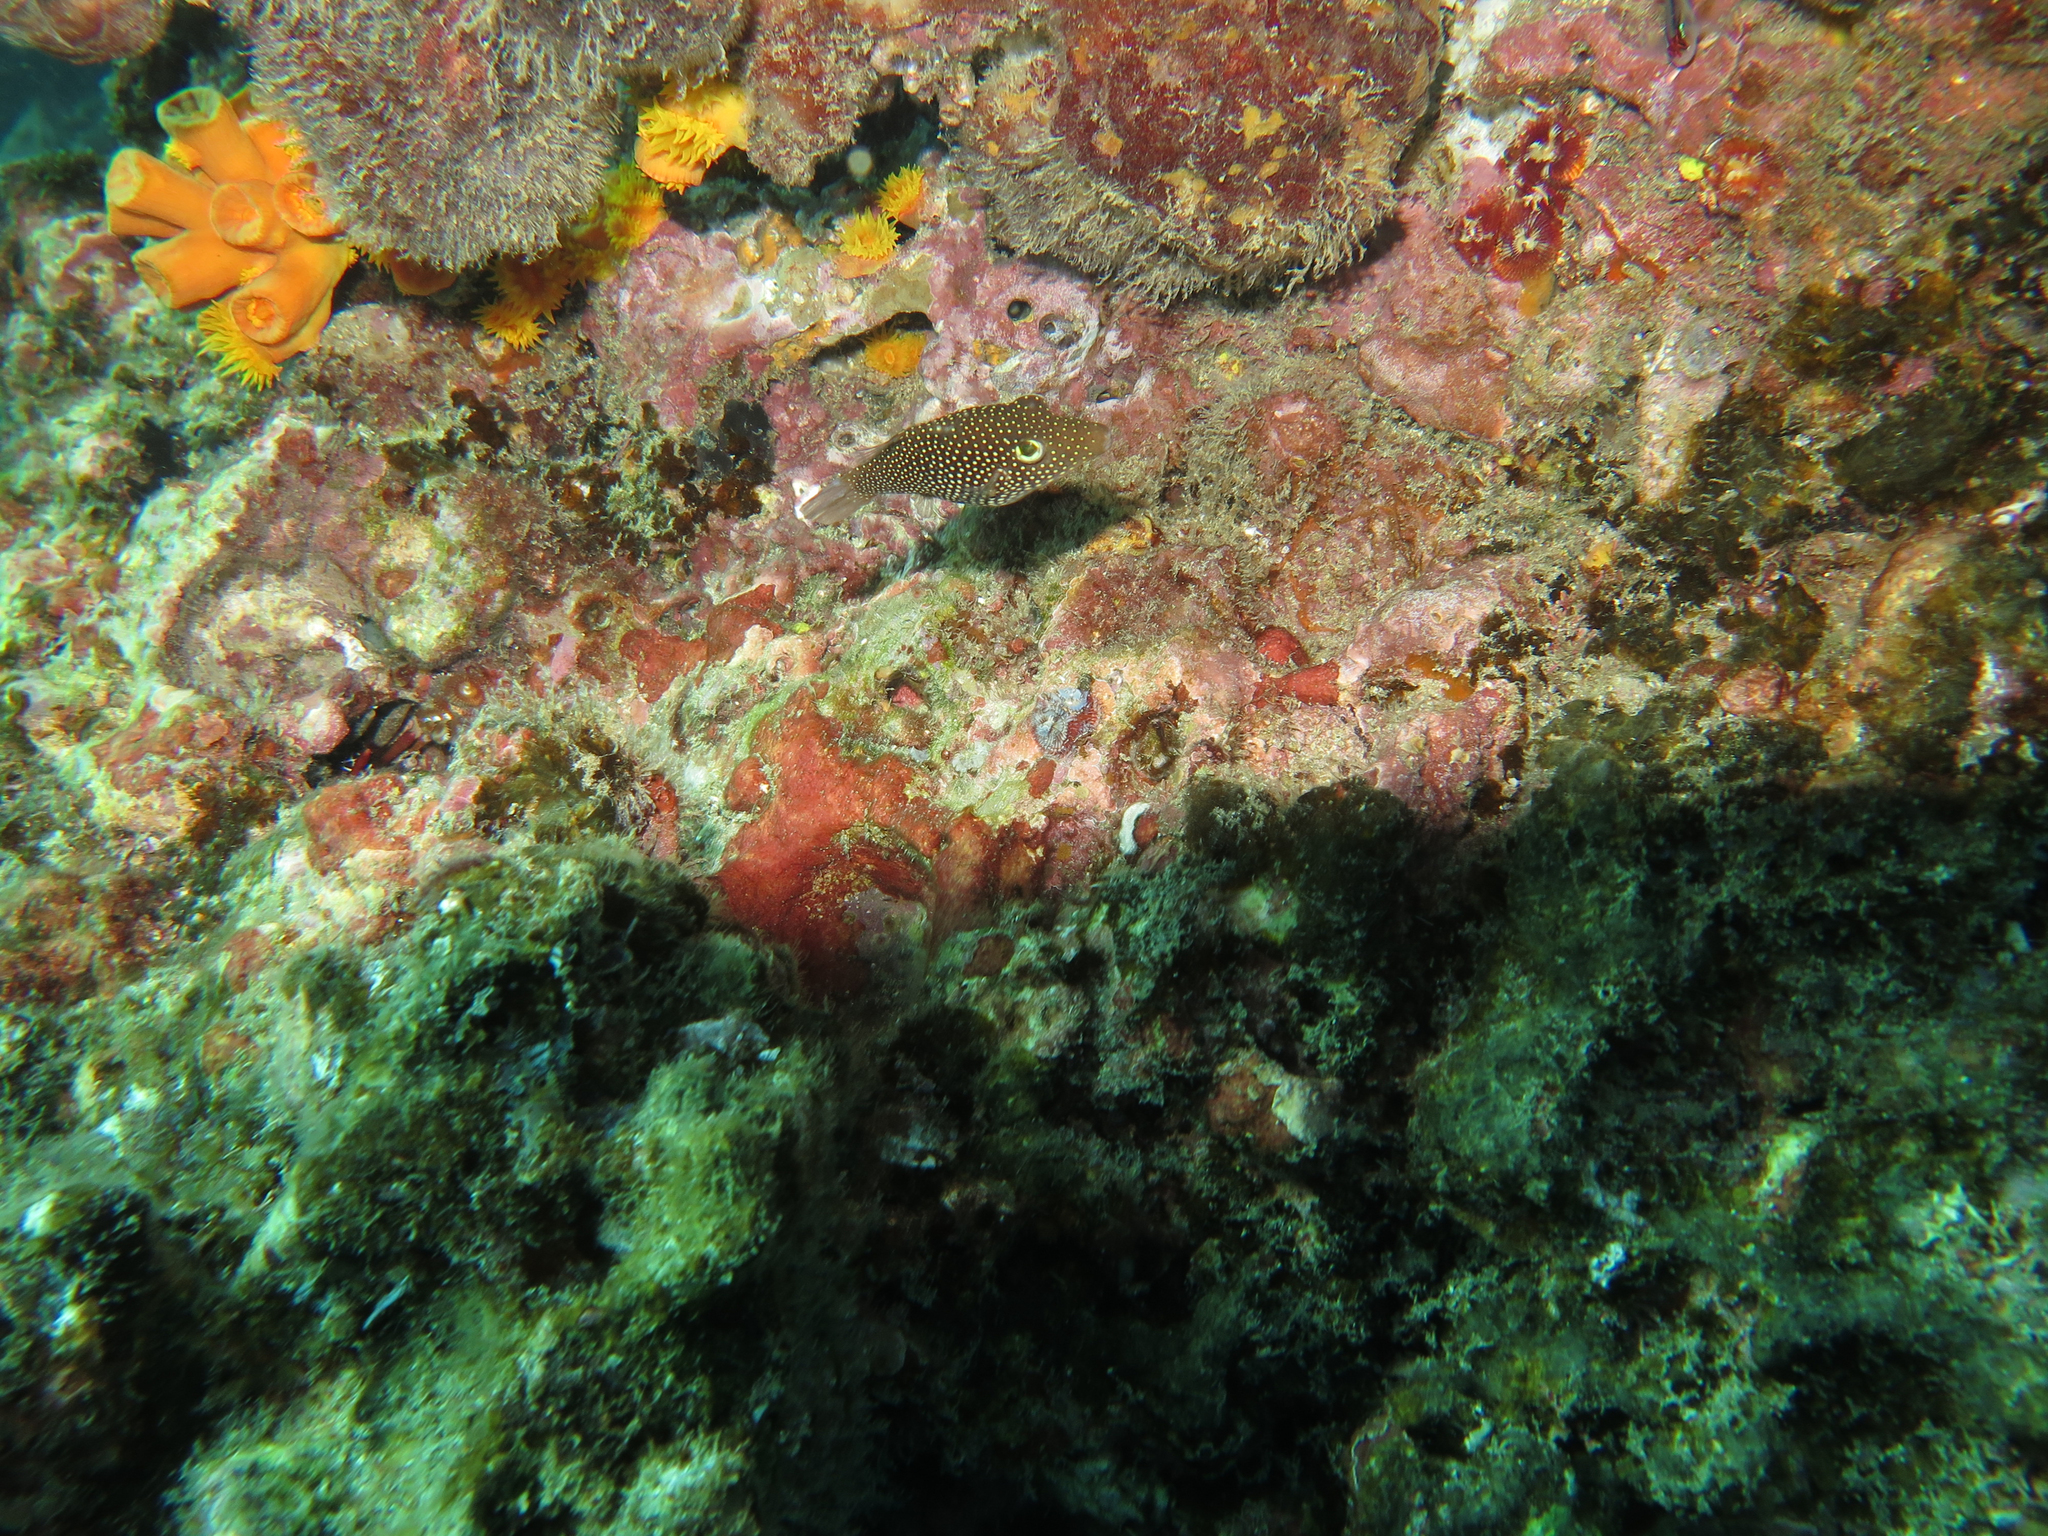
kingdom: Animalia
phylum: Chordata
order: Tetraodontiformes
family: Tetraodontidae
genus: Canthigaster
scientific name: Canthigaster punctatissima
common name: Spotted sharpnose puffer
